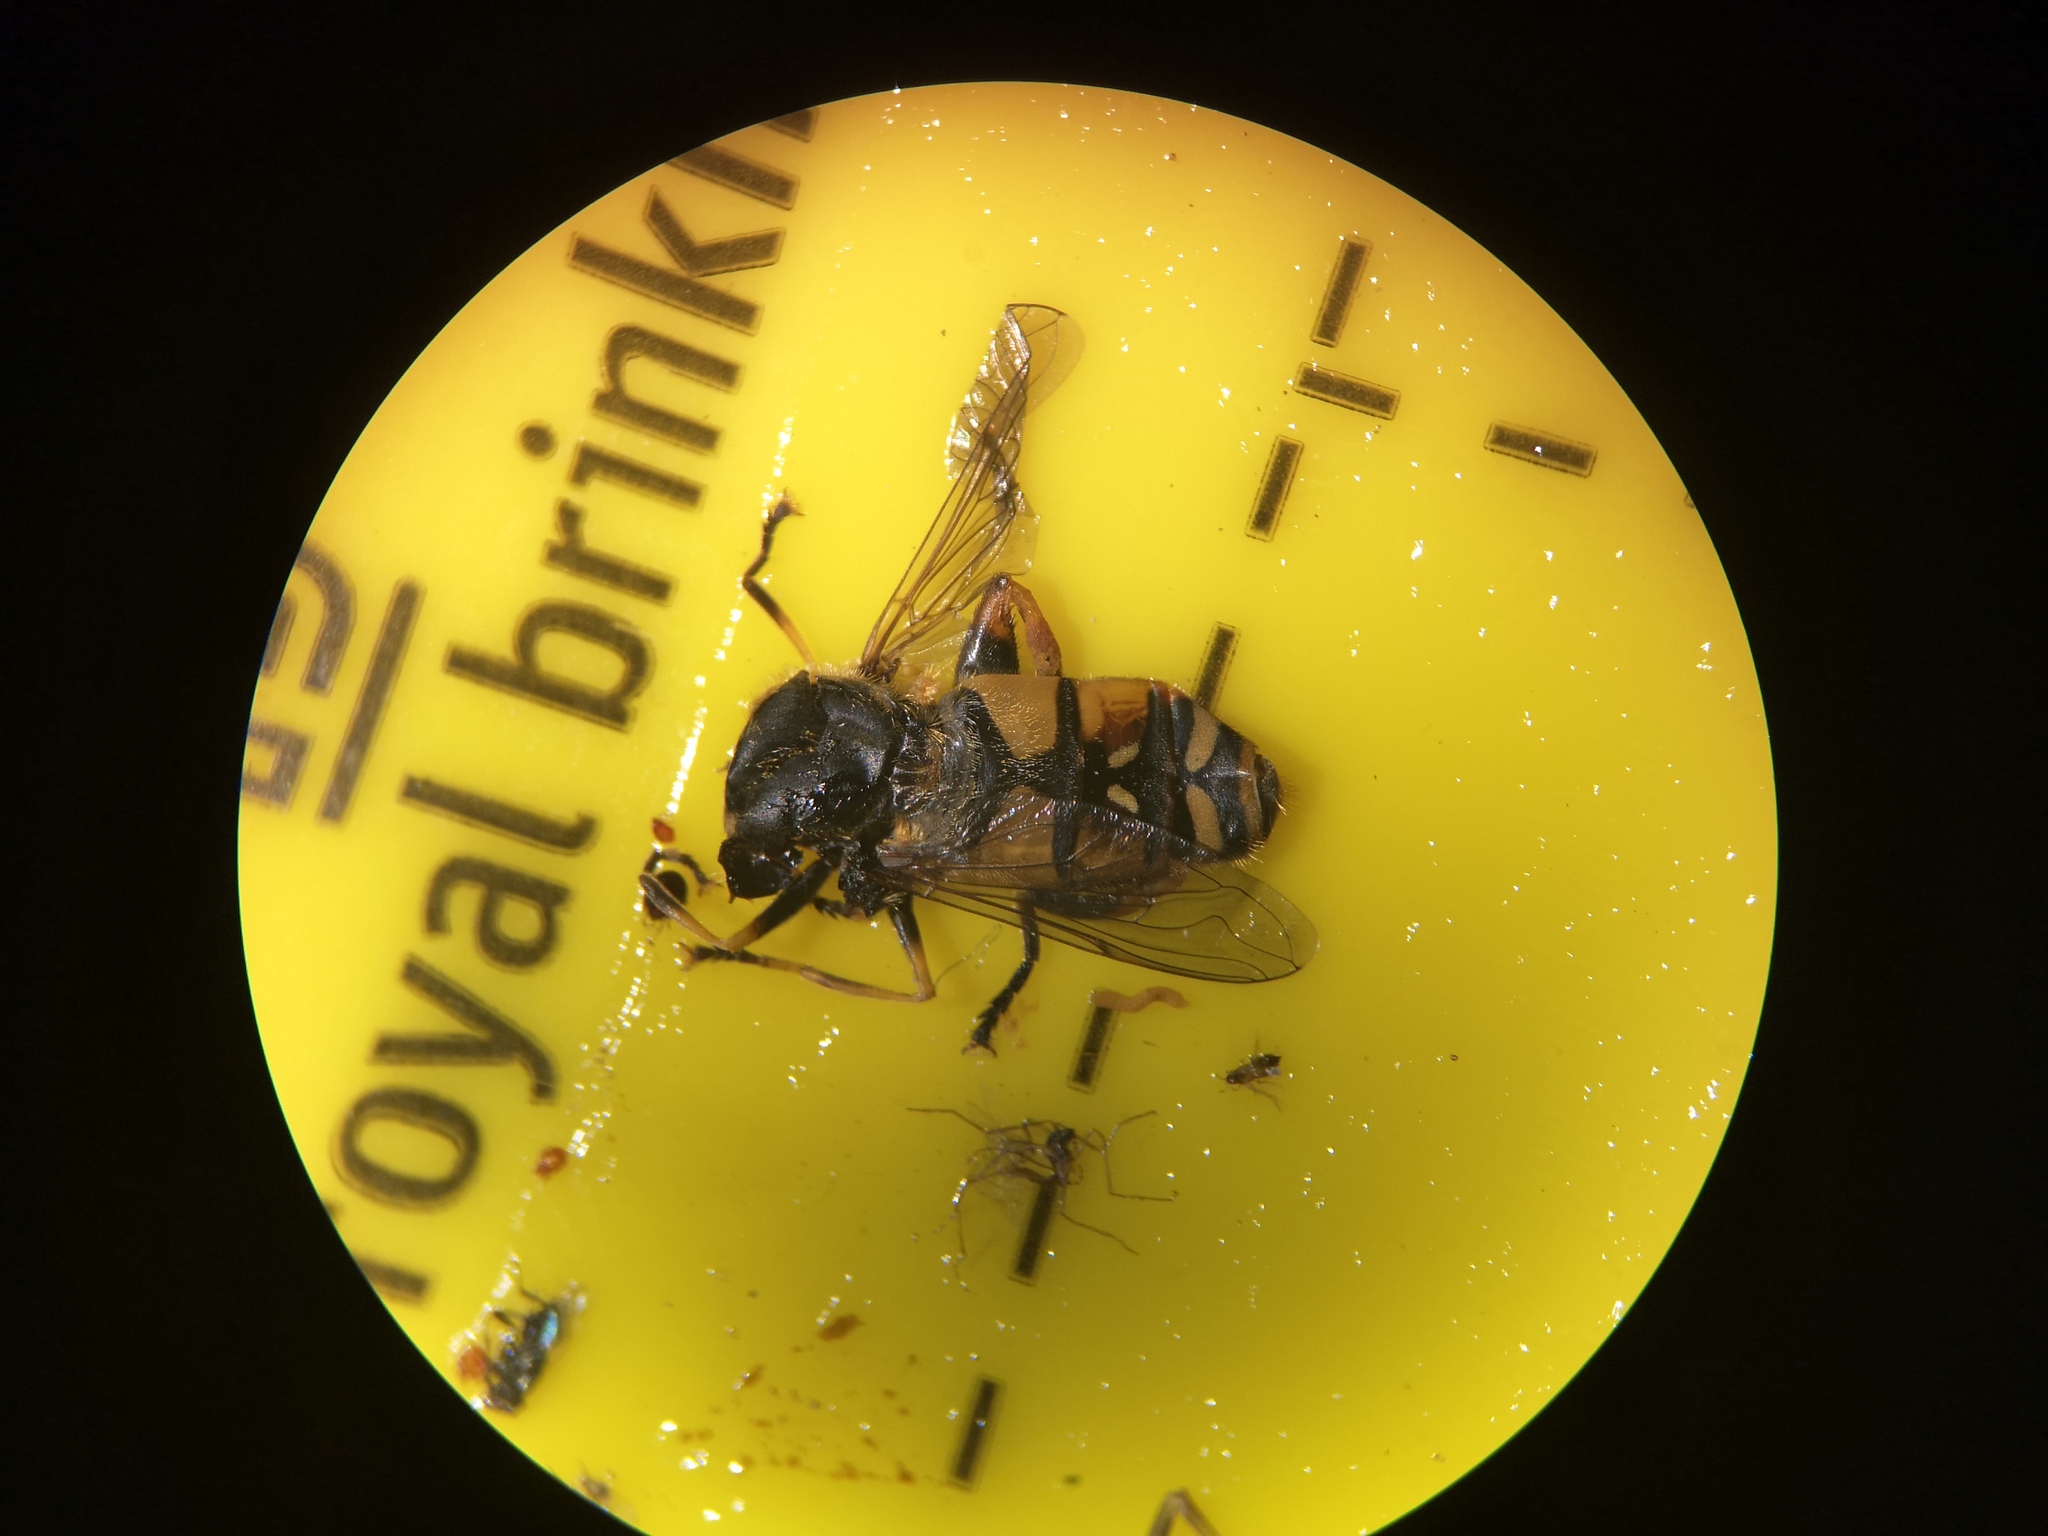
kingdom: Animalia
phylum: Arthropoda
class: Insecta
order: Diptera
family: Syrphidae
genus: Helophilus
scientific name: Helophilus pendulus
